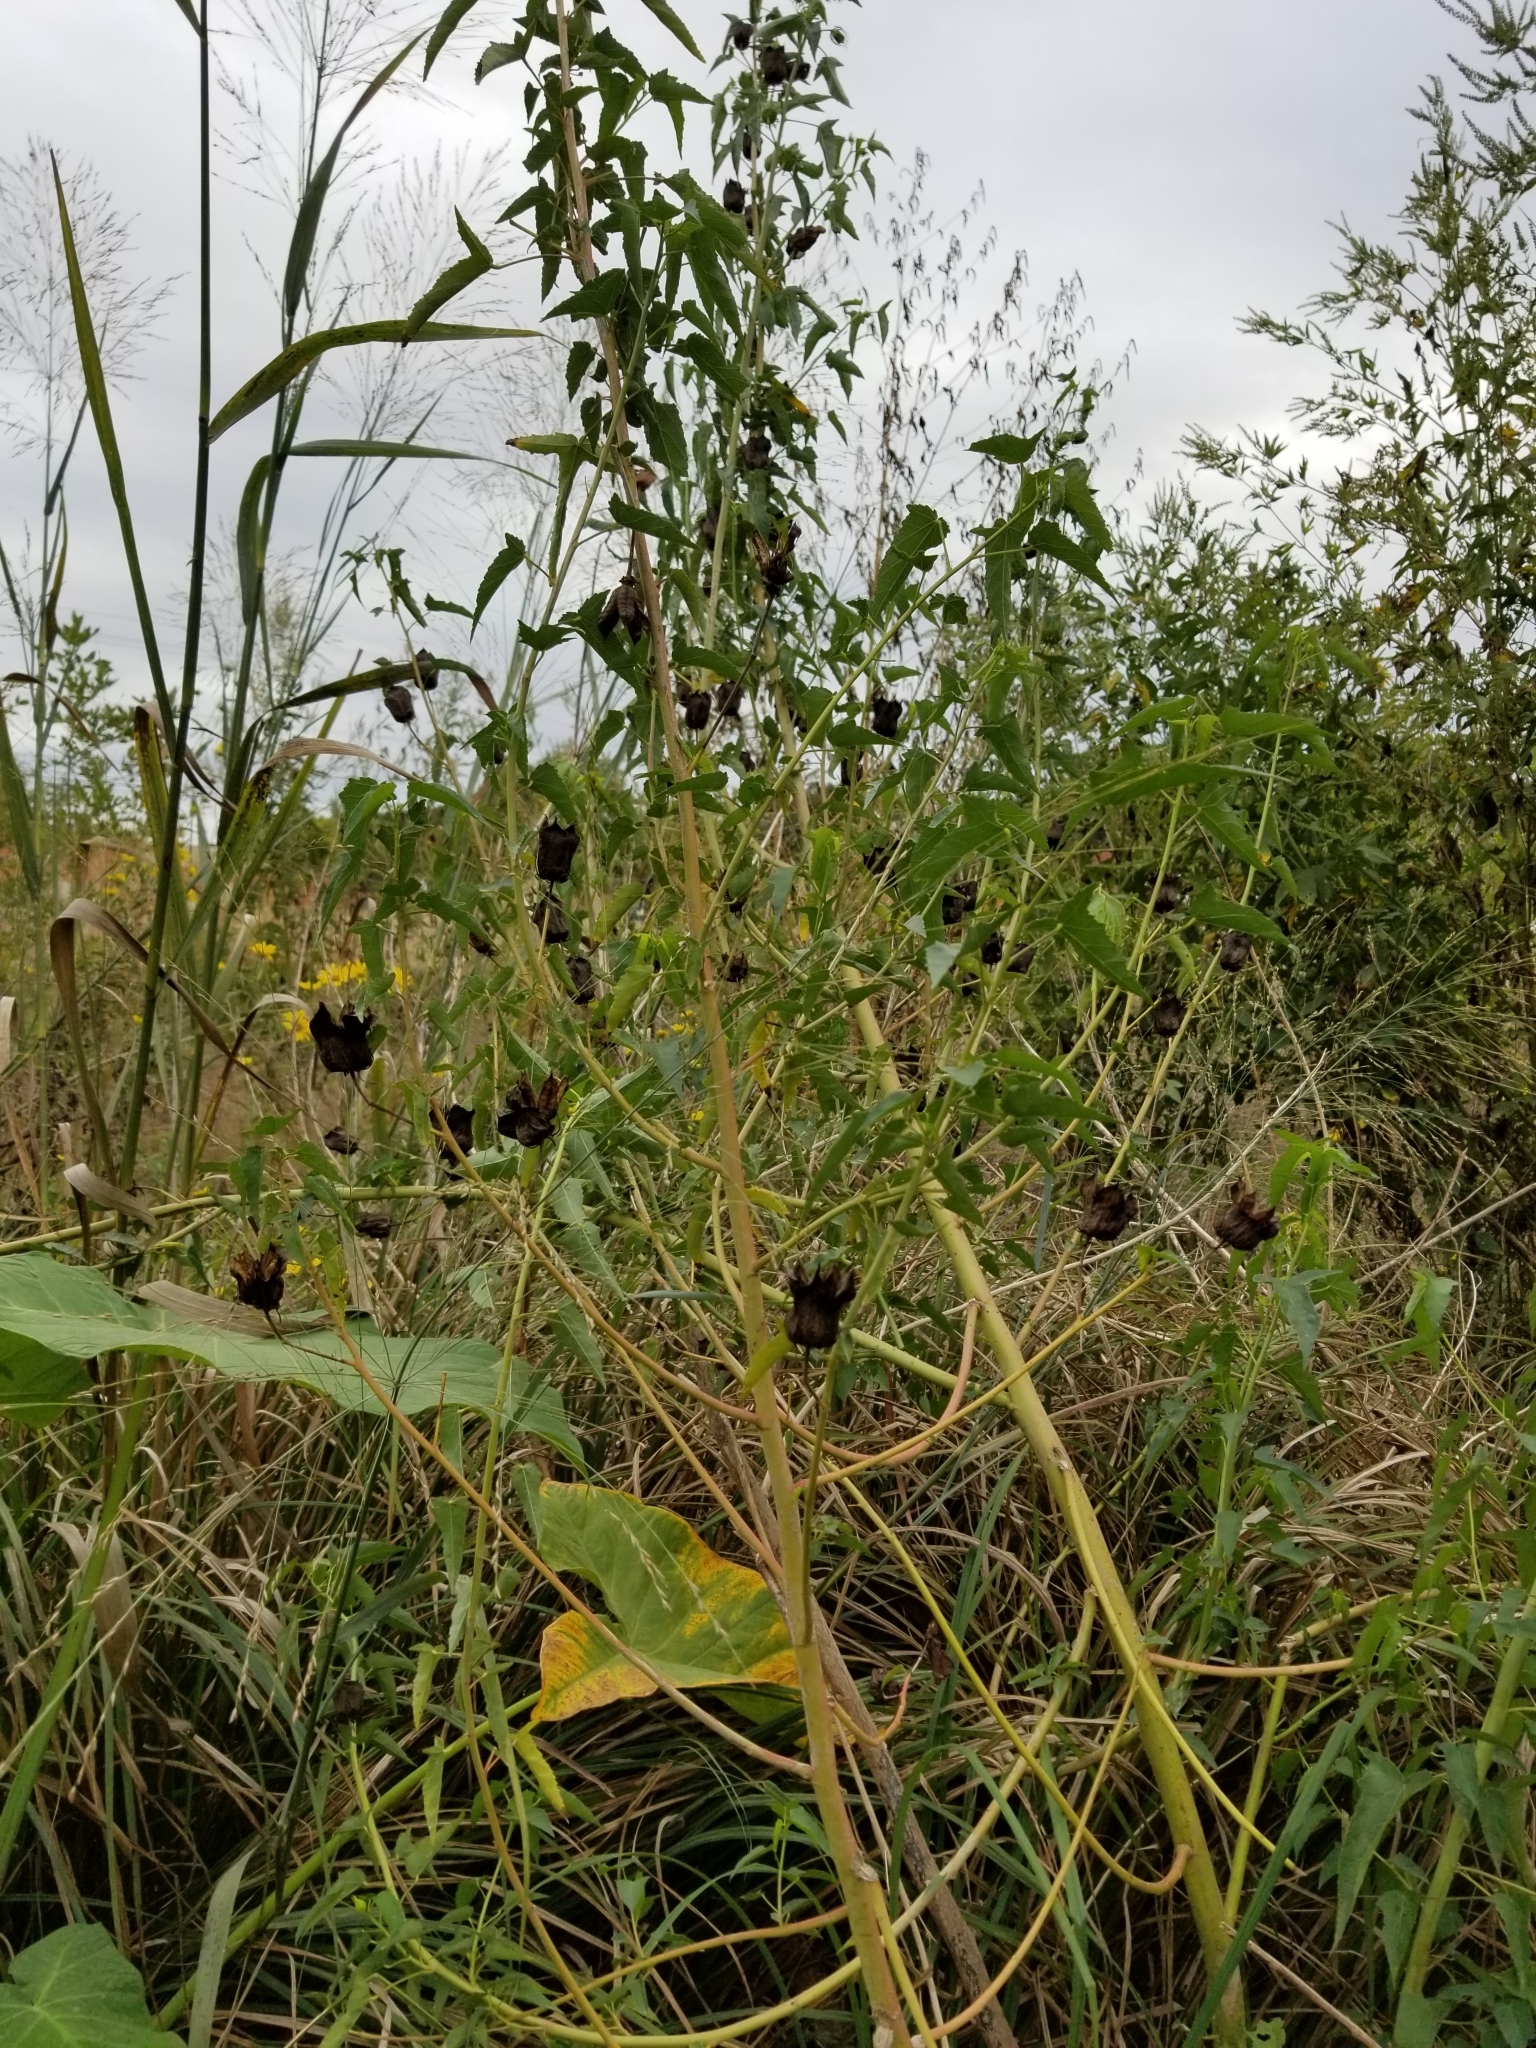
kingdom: Plantae
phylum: Tracheophyta
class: Magnoliopsida
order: Malvales
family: Malvaceae
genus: Hibiscus
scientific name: Hibiscus laevis
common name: Scarlet rose-mallow
